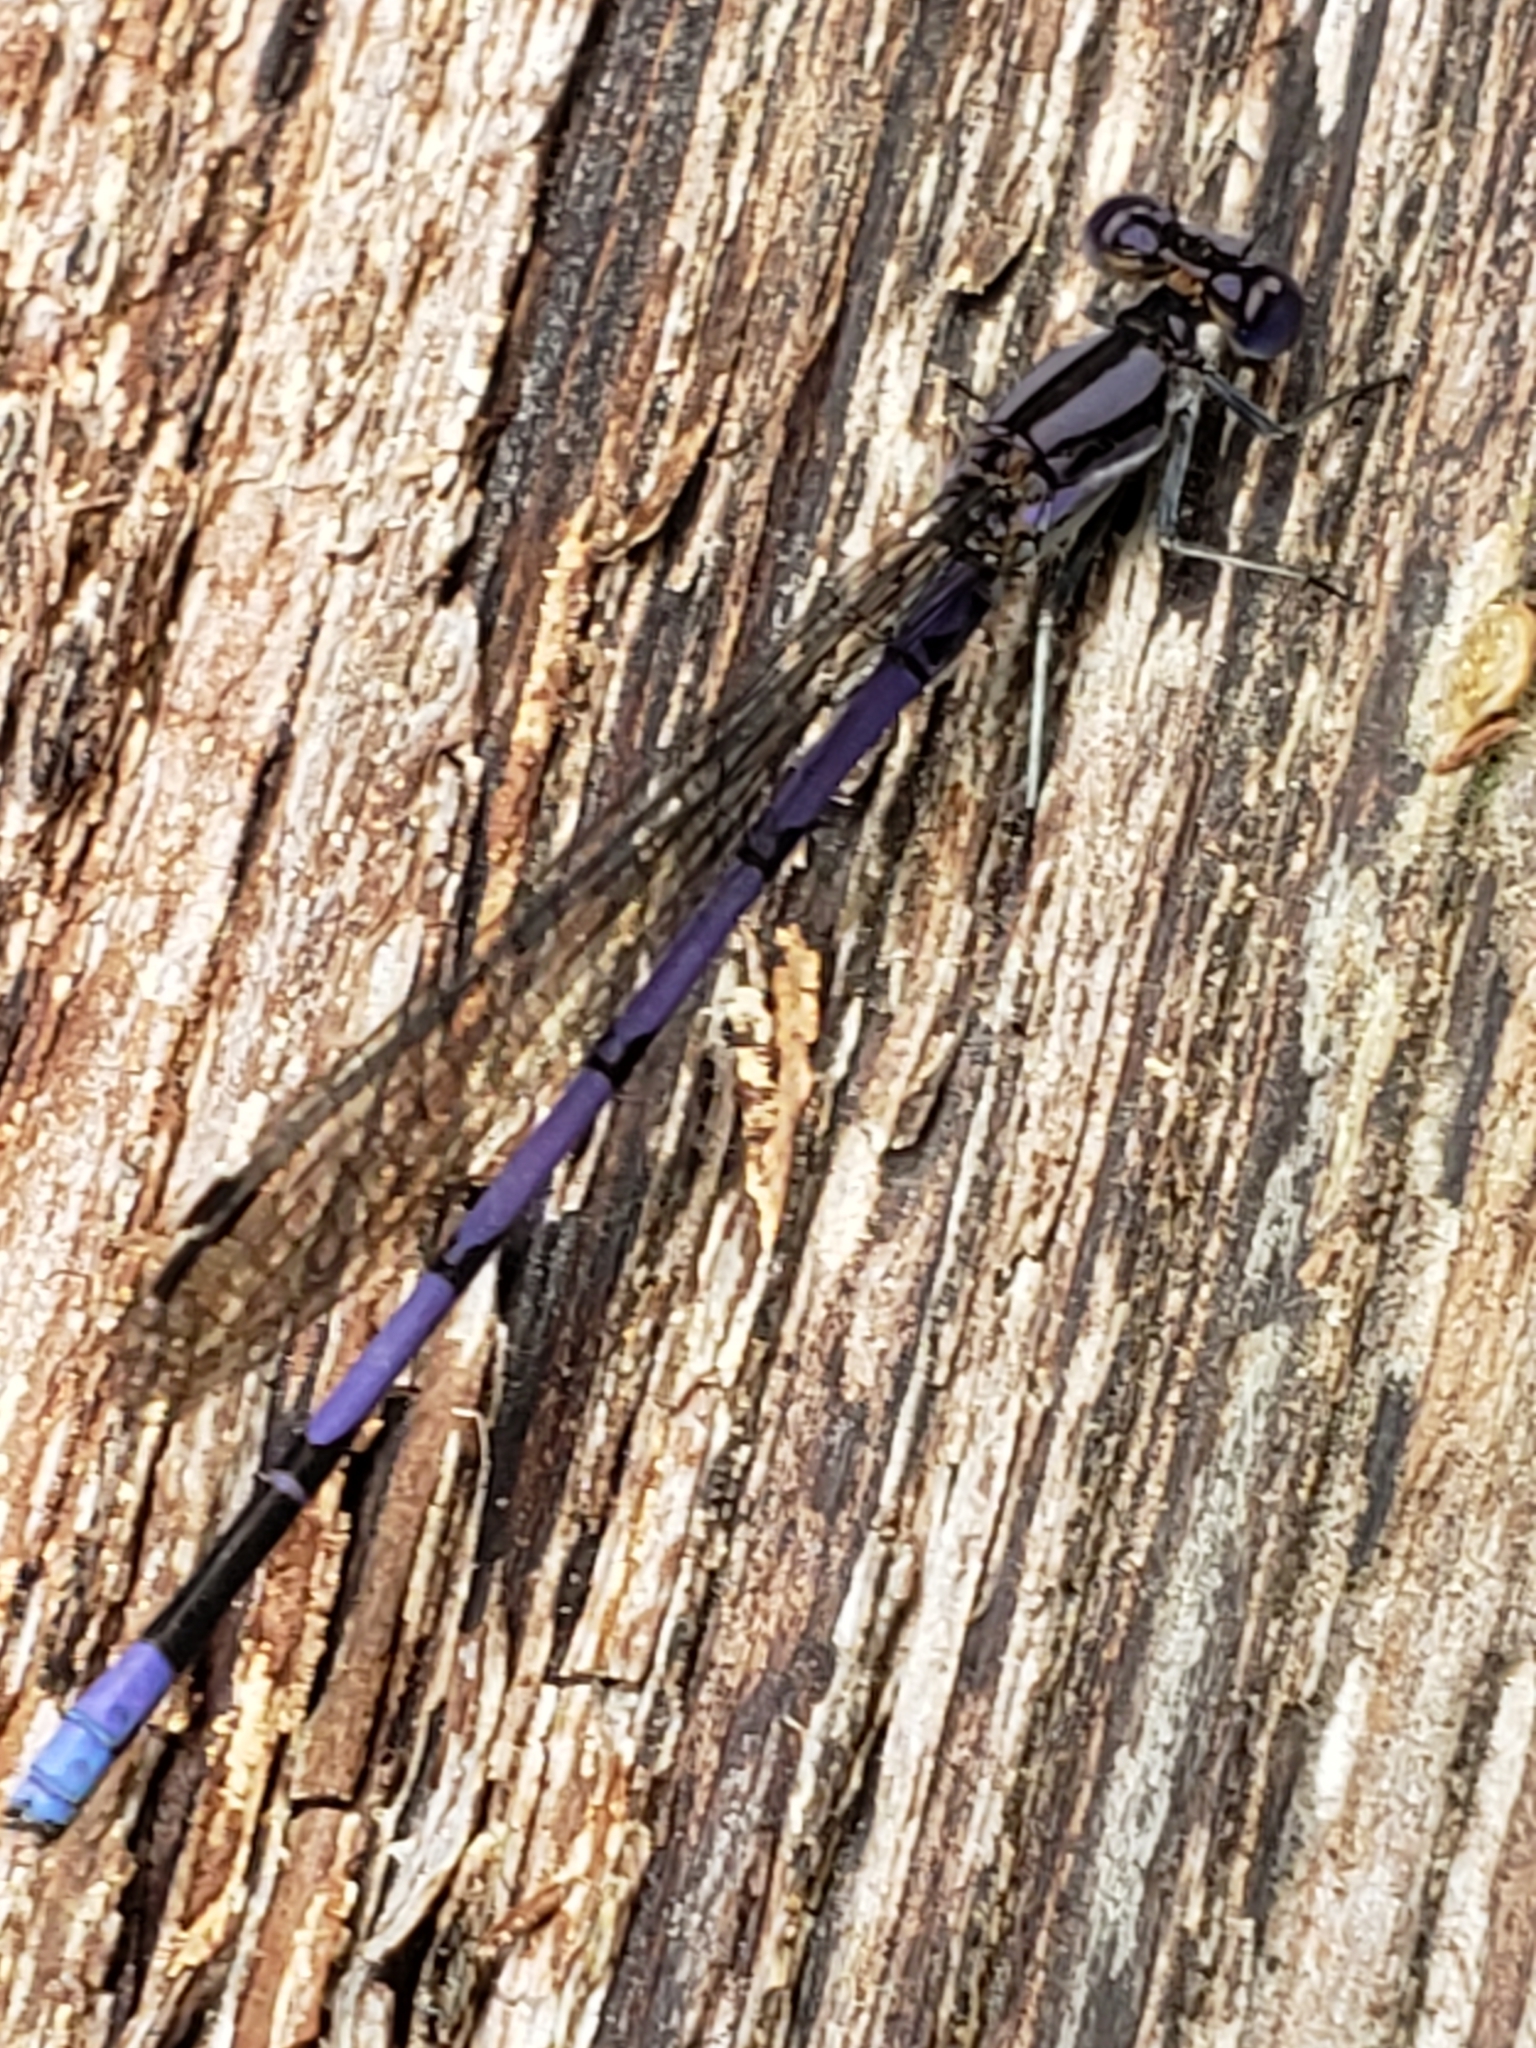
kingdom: Animalia
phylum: Arthropoda
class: Insecta
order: Odonata
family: Coenagrionidae
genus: Argia
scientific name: Argia fumipennis
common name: Variable dancer
